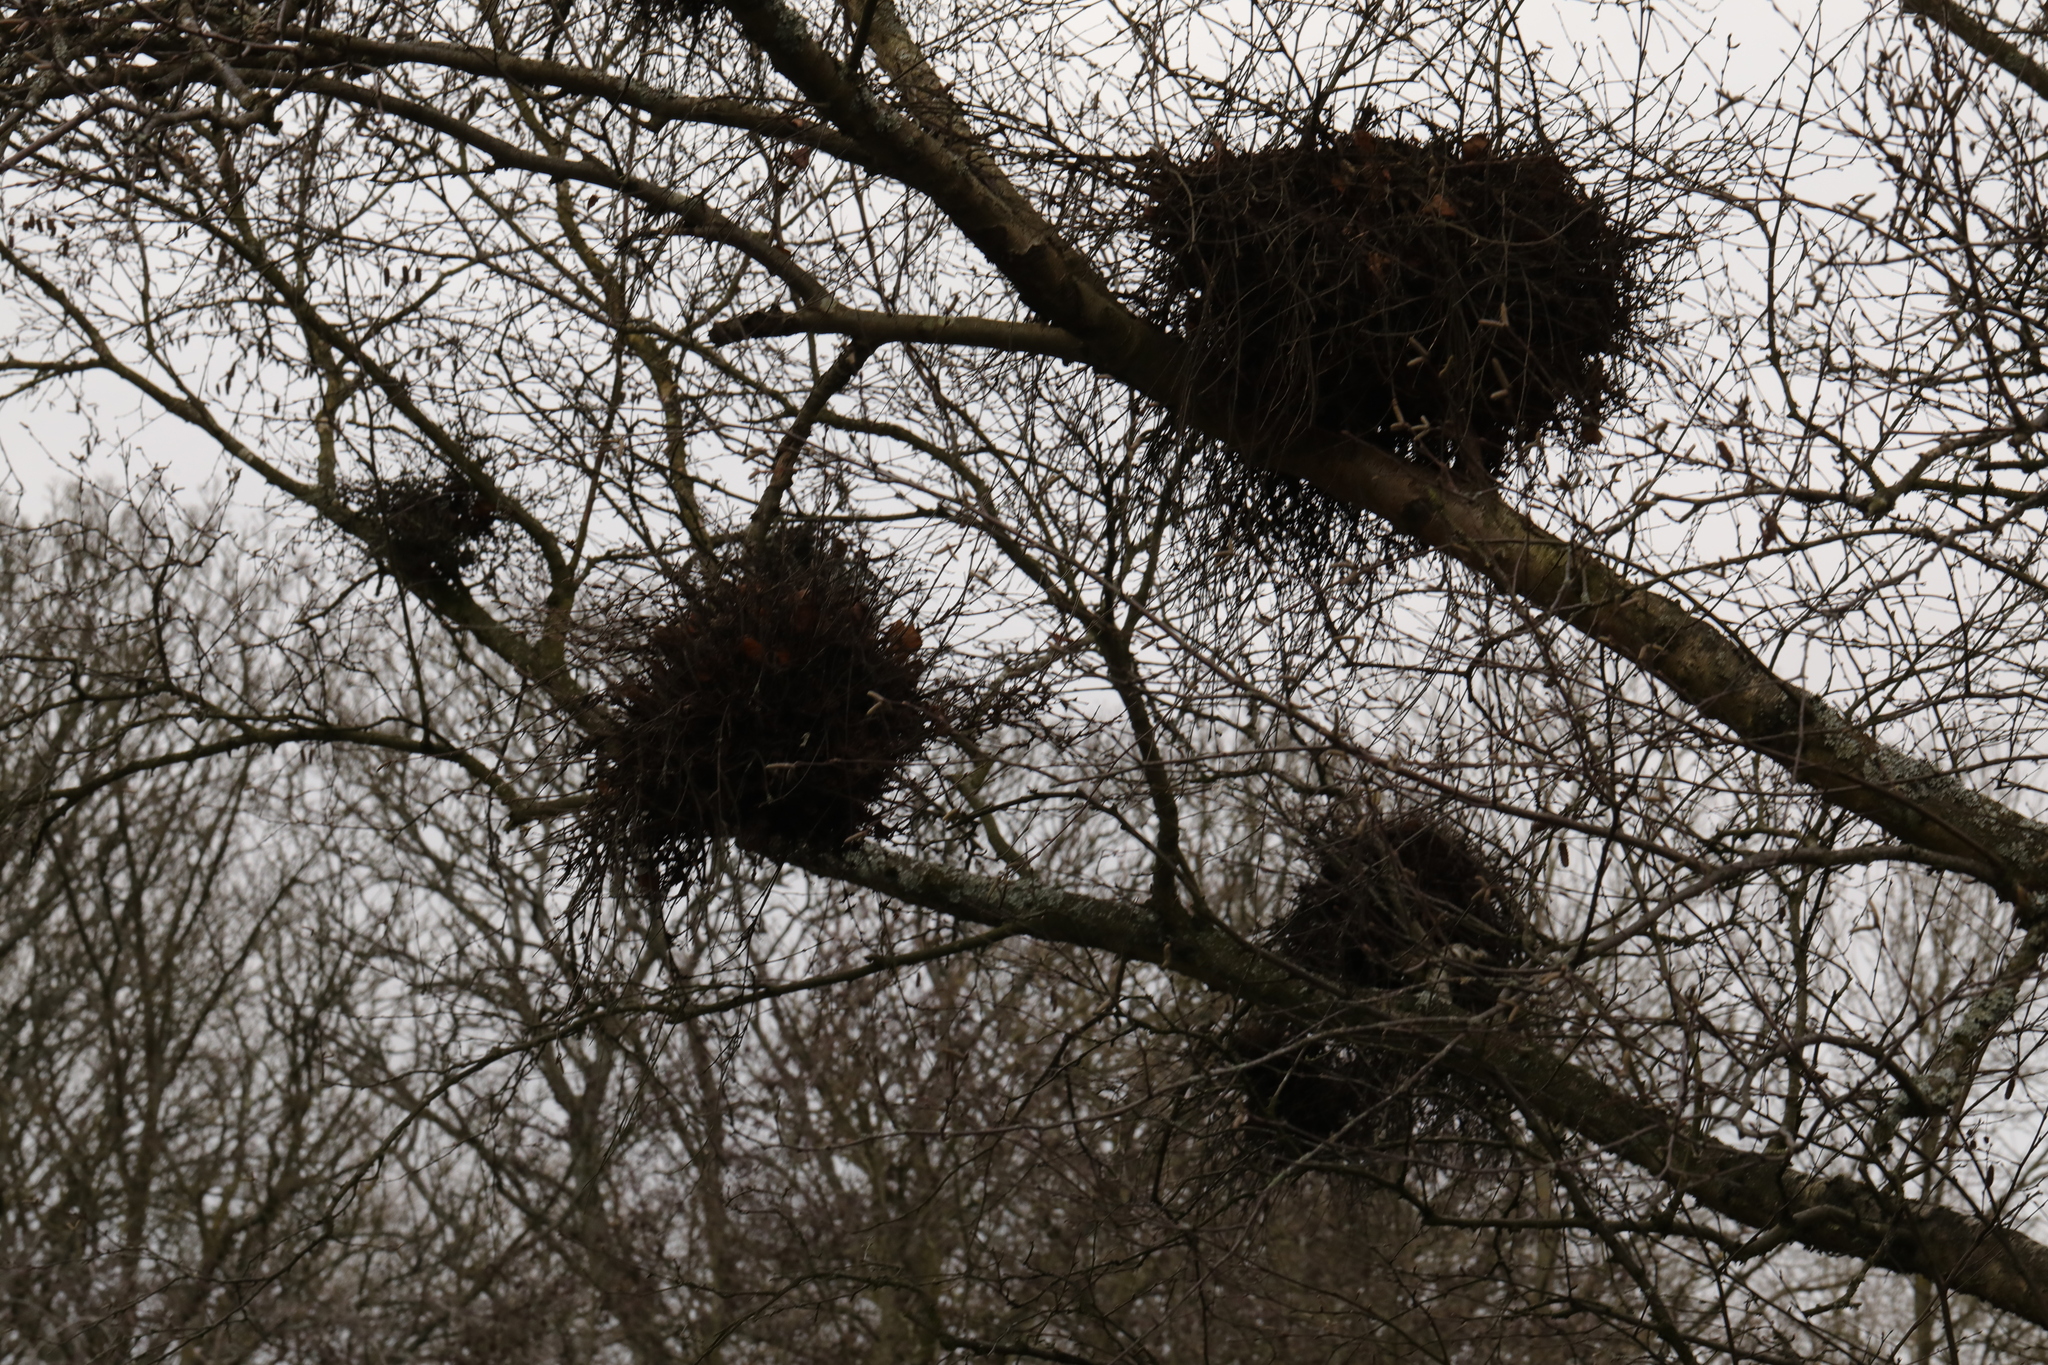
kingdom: Fungi
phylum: Ascomycota
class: Taphrinomycetes
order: Taphrinales
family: Taphrinaceae
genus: Taphrina
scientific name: Taphrina betulina
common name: Birch besom
